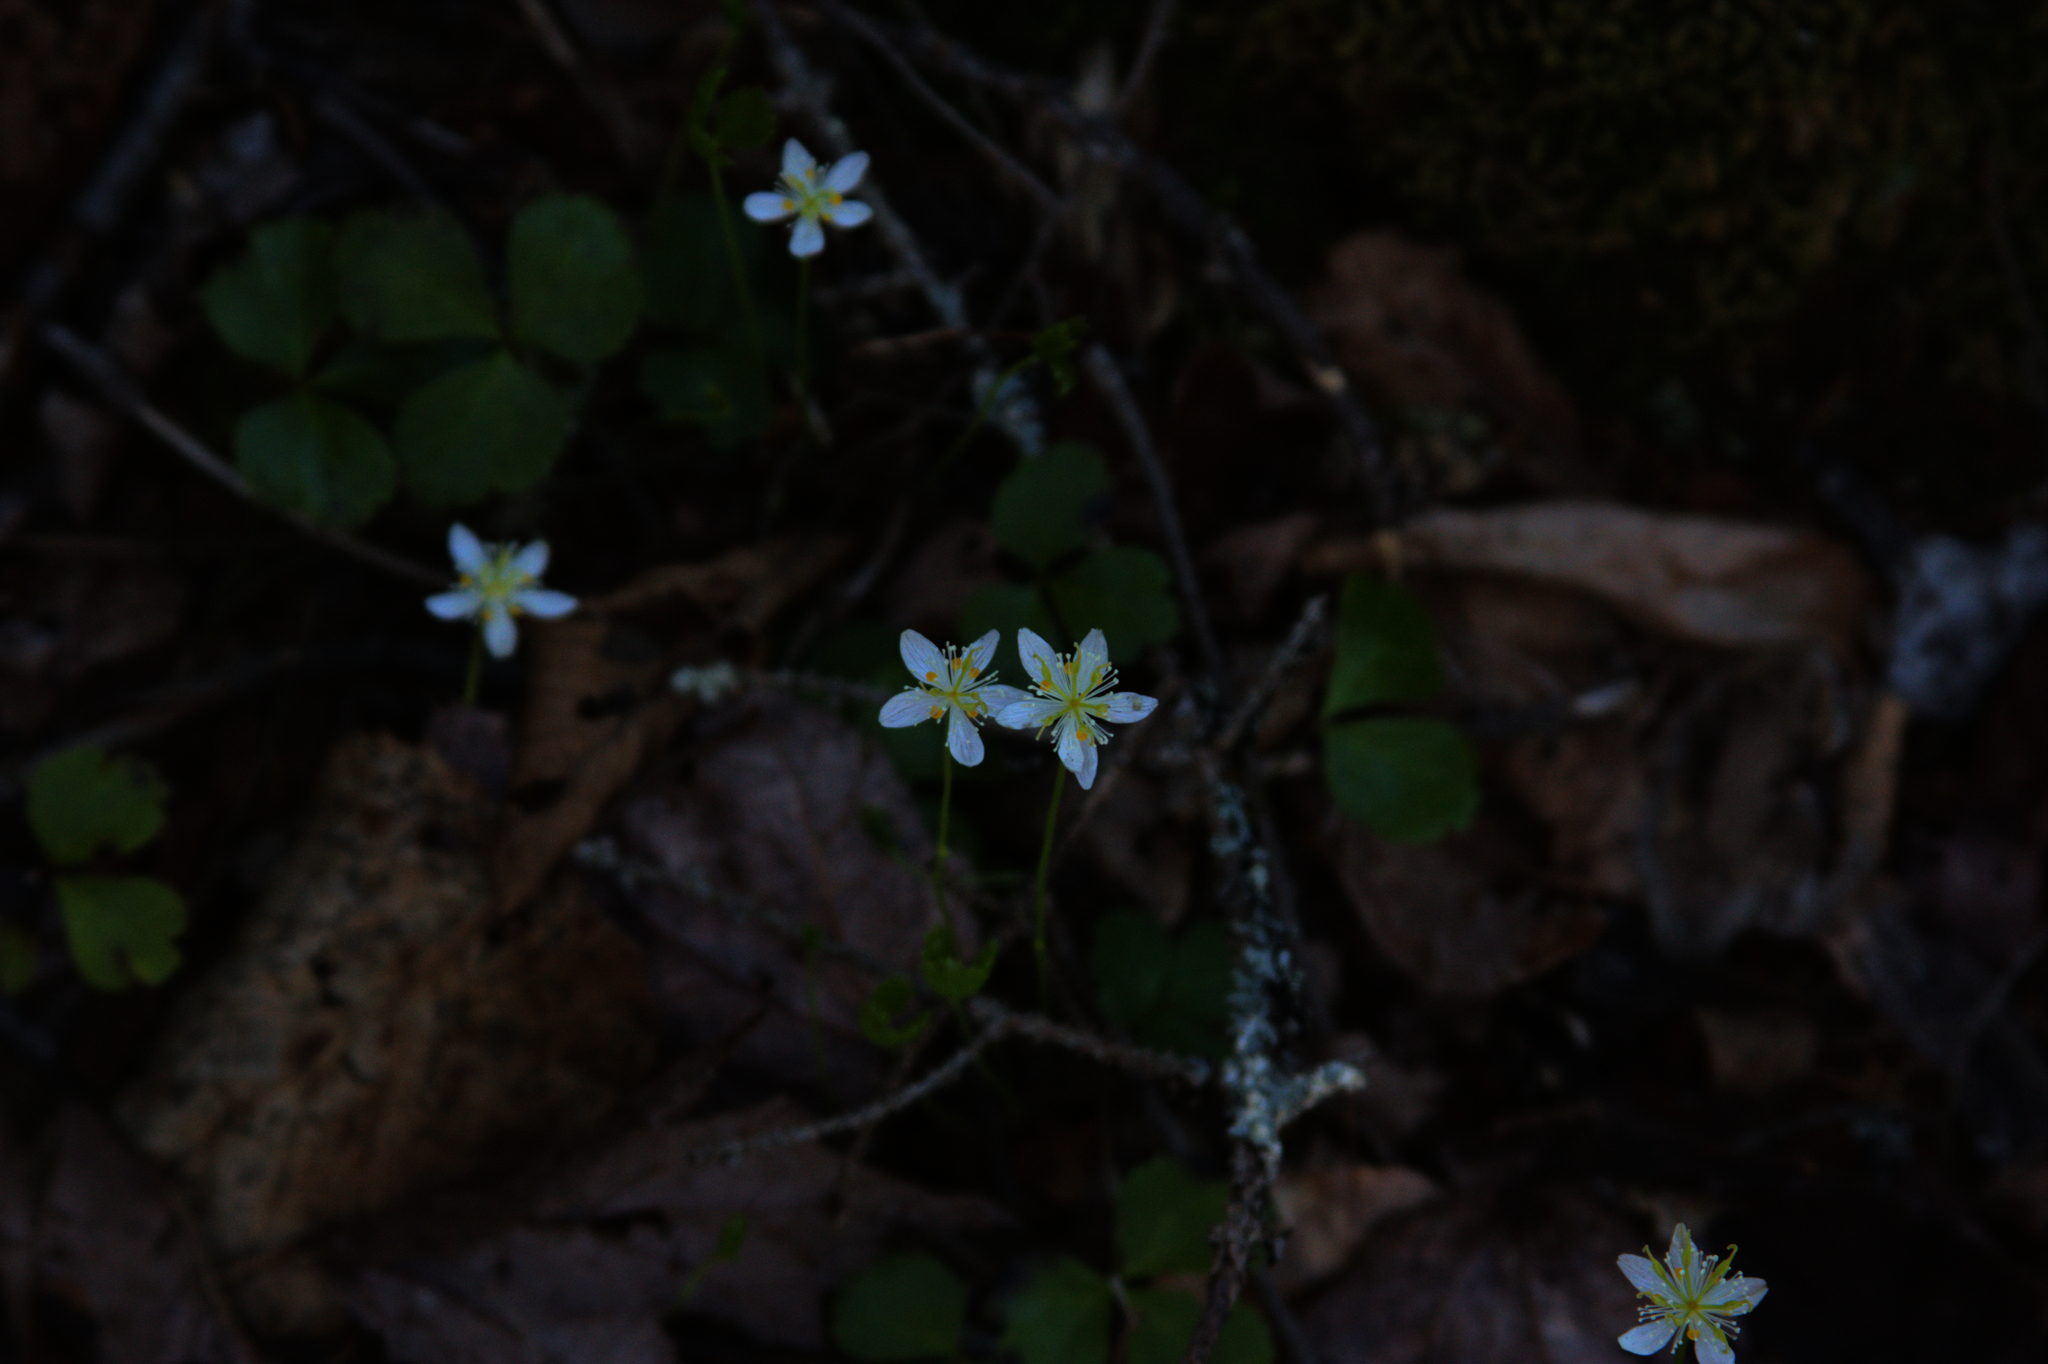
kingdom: Plantae
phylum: Tracheophyta
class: Magnoliopsida
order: Ranunculales
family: Ranunculaceae
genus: Coptis
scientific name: Coptis trifolia
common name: Canker-root
